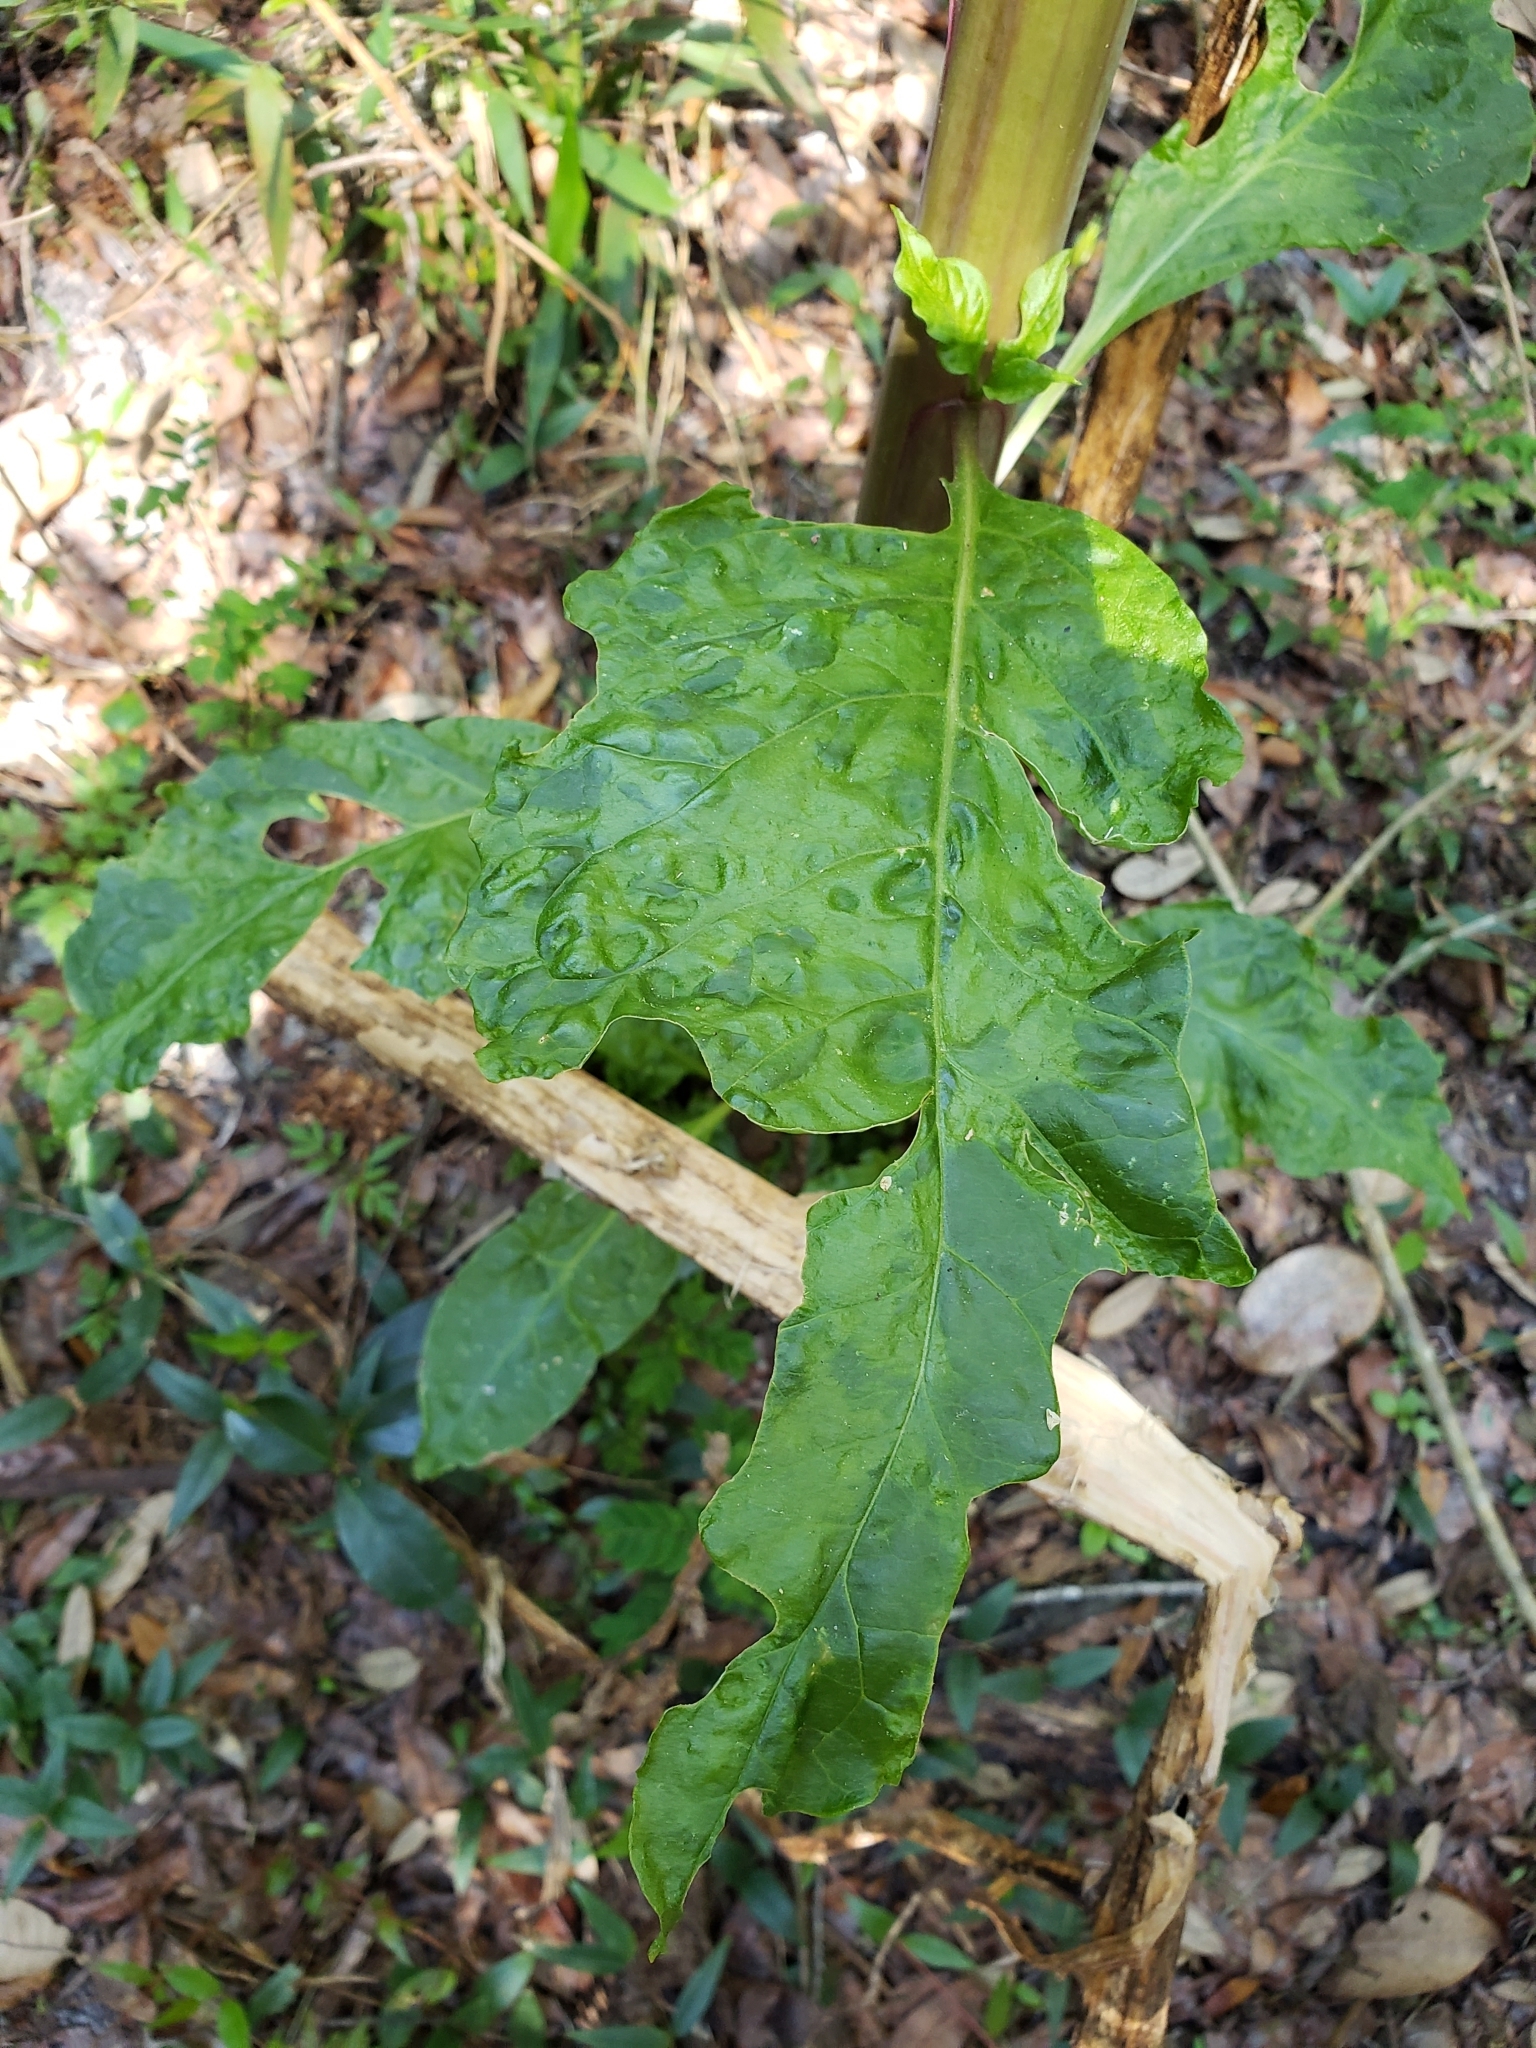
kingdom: Plantae
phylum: Tracheophyta
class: Magnoliopsida
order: Caryophyllales
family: Phytolaccaceae
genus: Phytolacca
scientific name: Phytolacca americana
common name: American pokeweed
